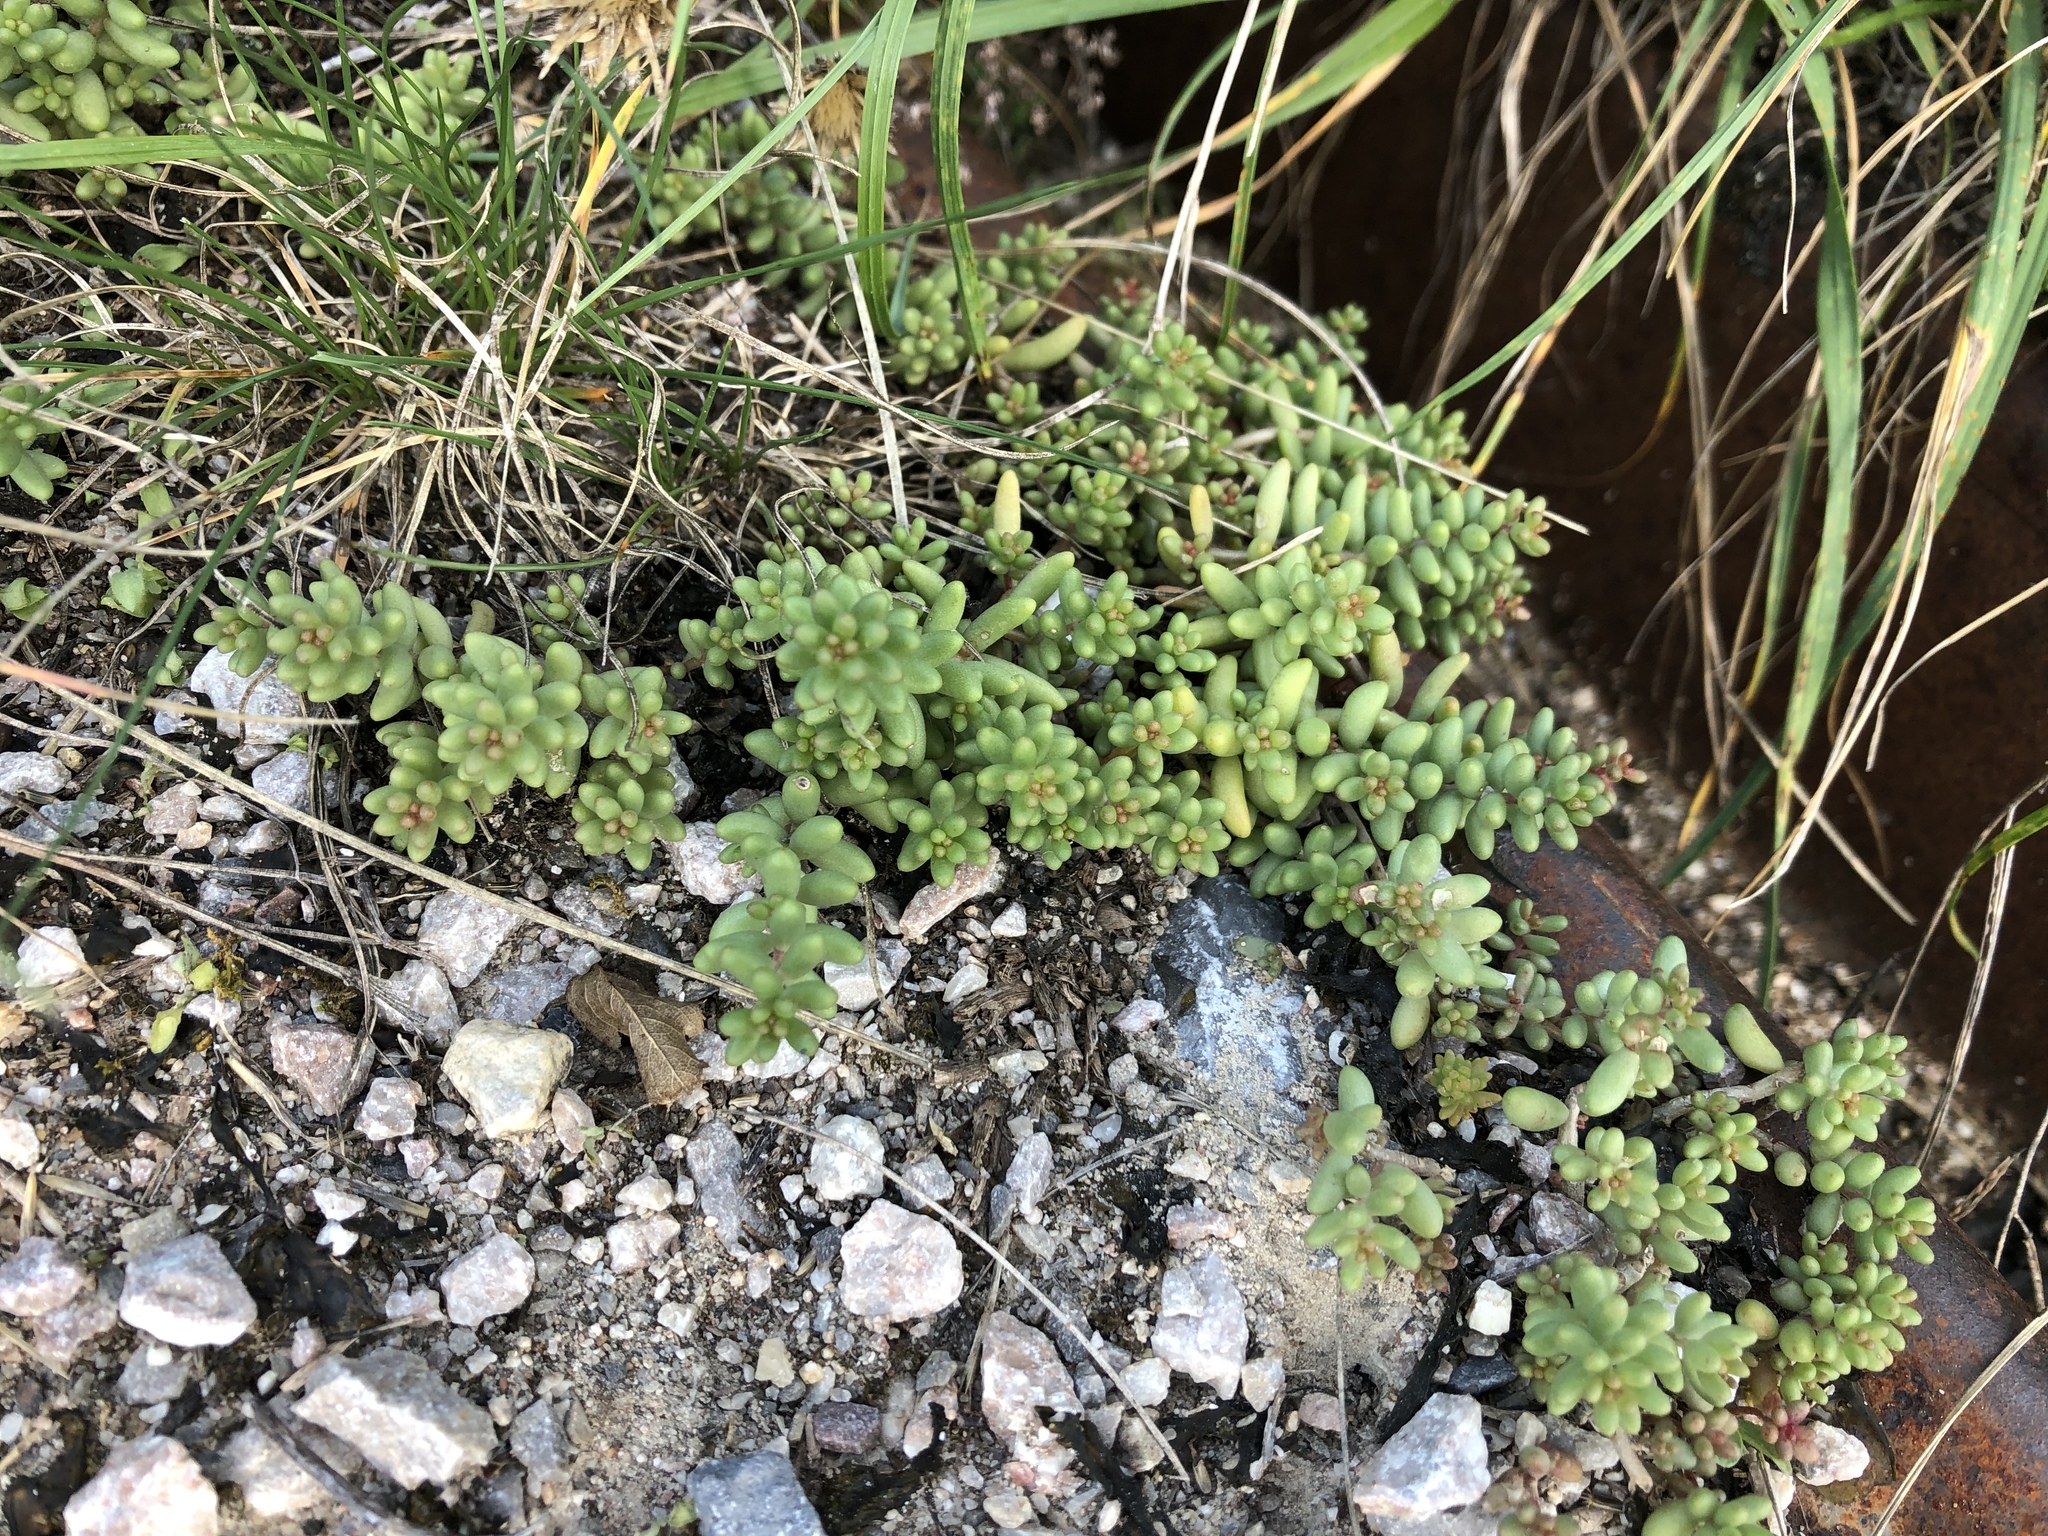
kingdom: Plantae
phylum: Tracheophyta
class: Magnoliopsida
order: Saxifragales
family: Crassulaceae
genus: Sedum
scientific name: Sedum album
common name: White stonecrop
